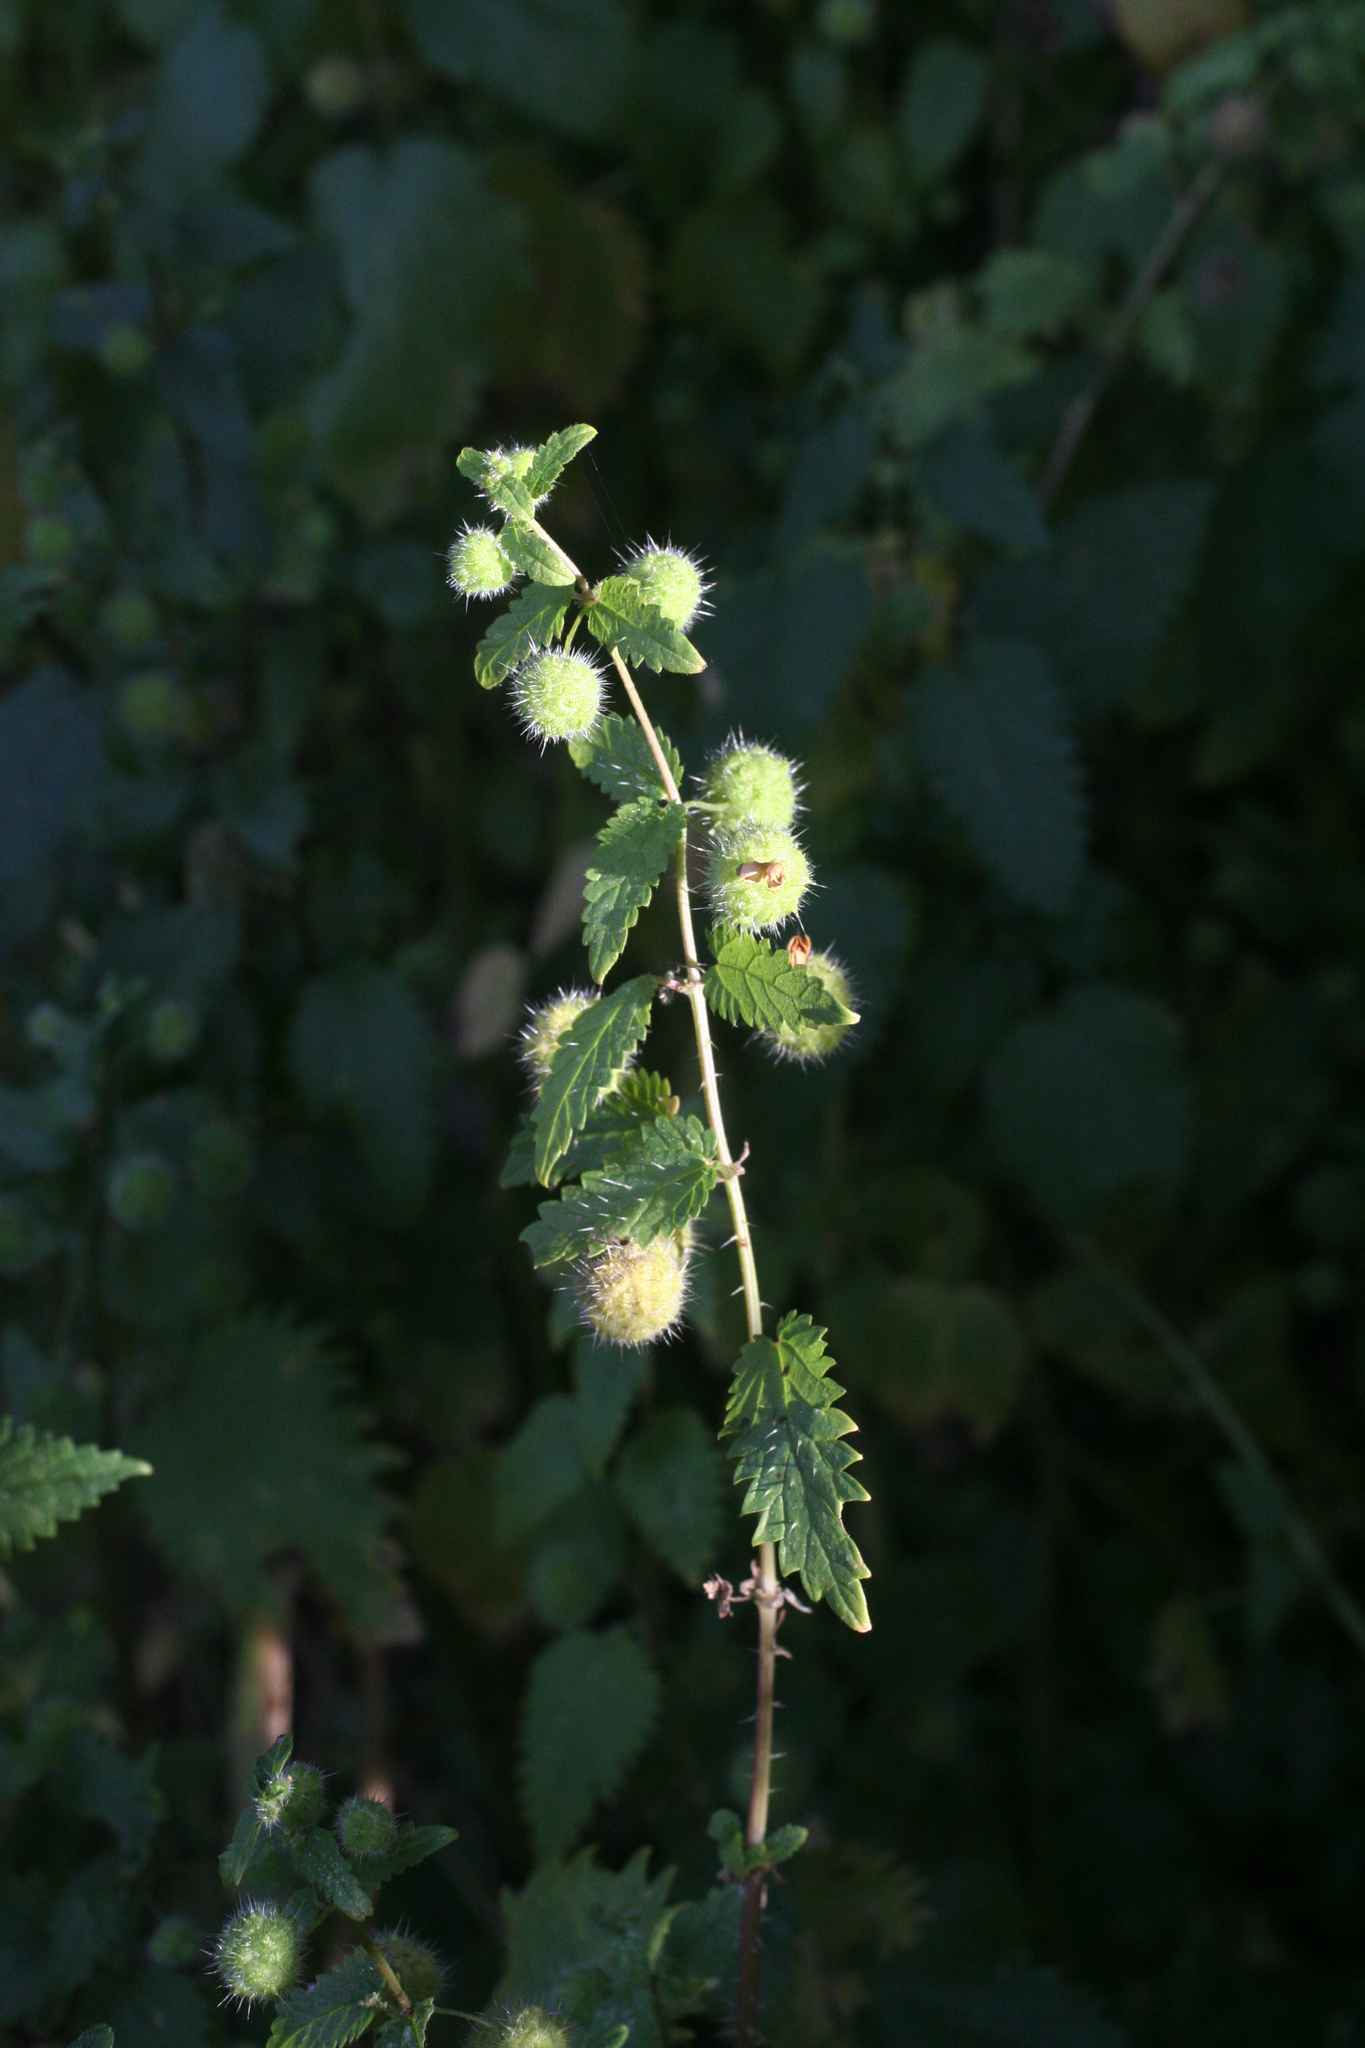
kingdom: Plantae
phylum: Tracheophyta
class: Magnoliopsida
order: Rosales
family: Urticaceae
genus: Urtica
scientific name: Urtica pilulifera
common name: Roman nettle
